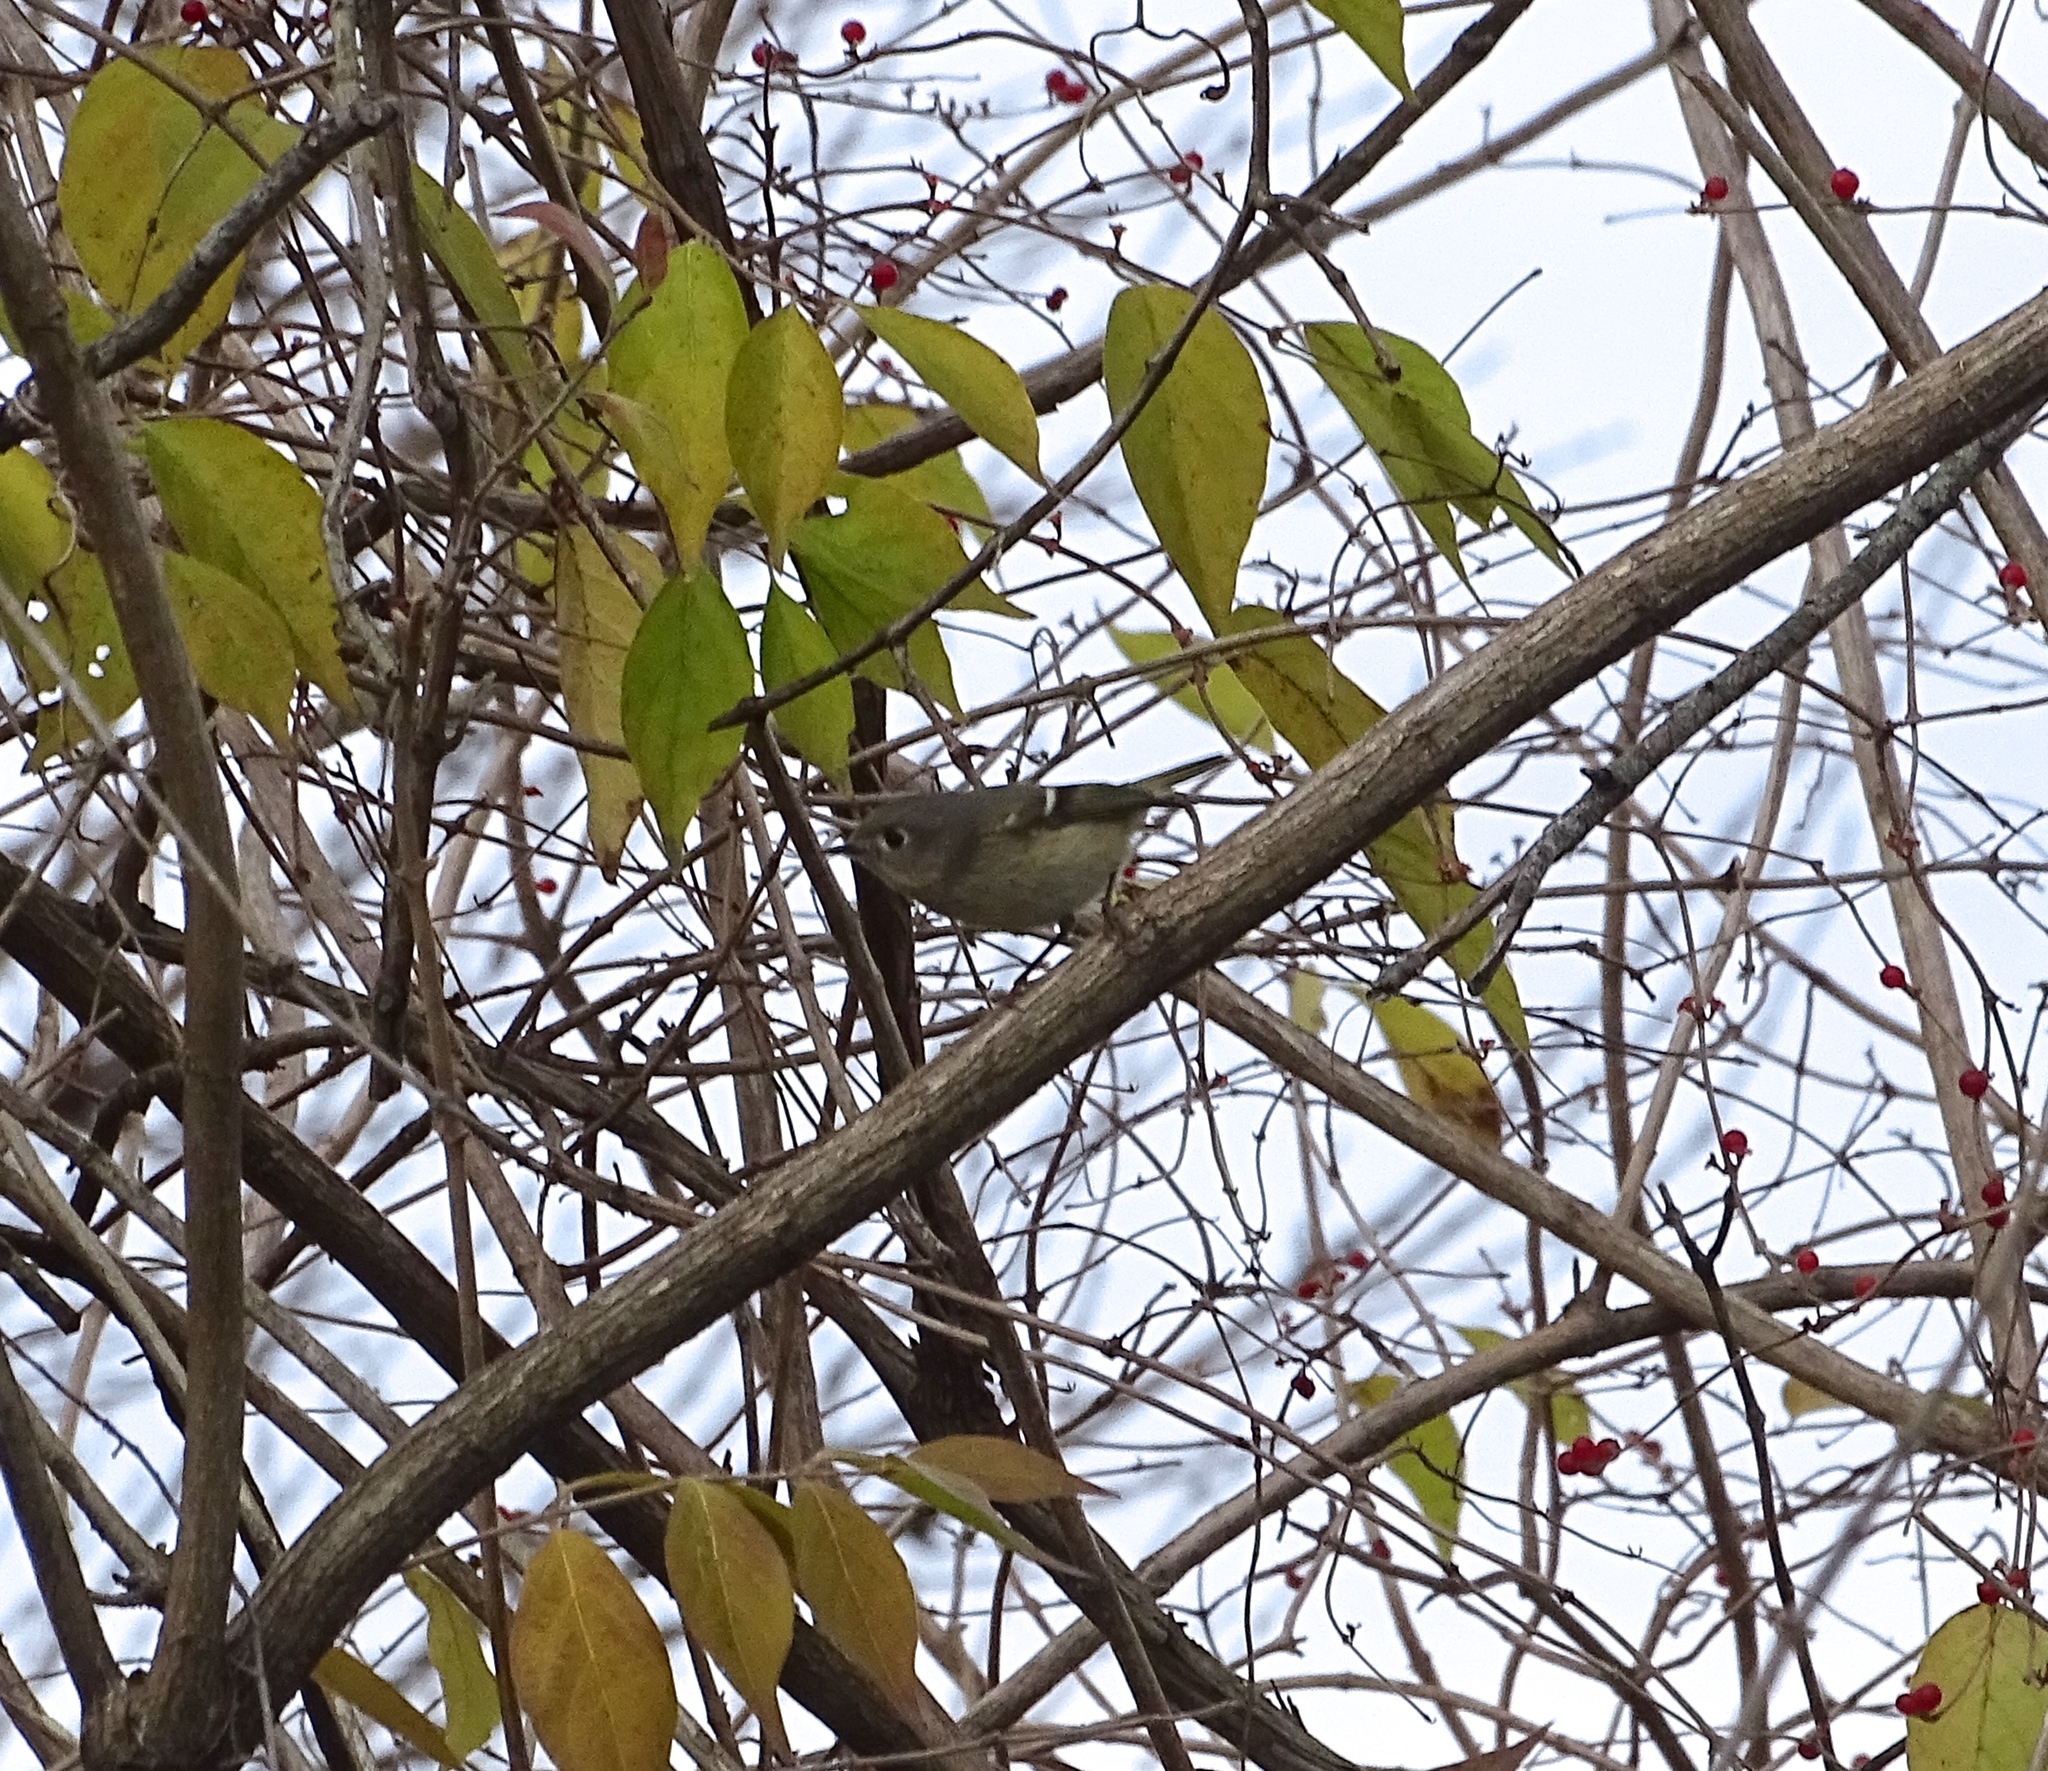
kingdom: Animalia
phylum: Chordata
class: Aves
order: Passeriformes
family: Regulidae
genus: Regulus
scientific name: Regulus calendula
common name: Ruby-crowned kinglet
